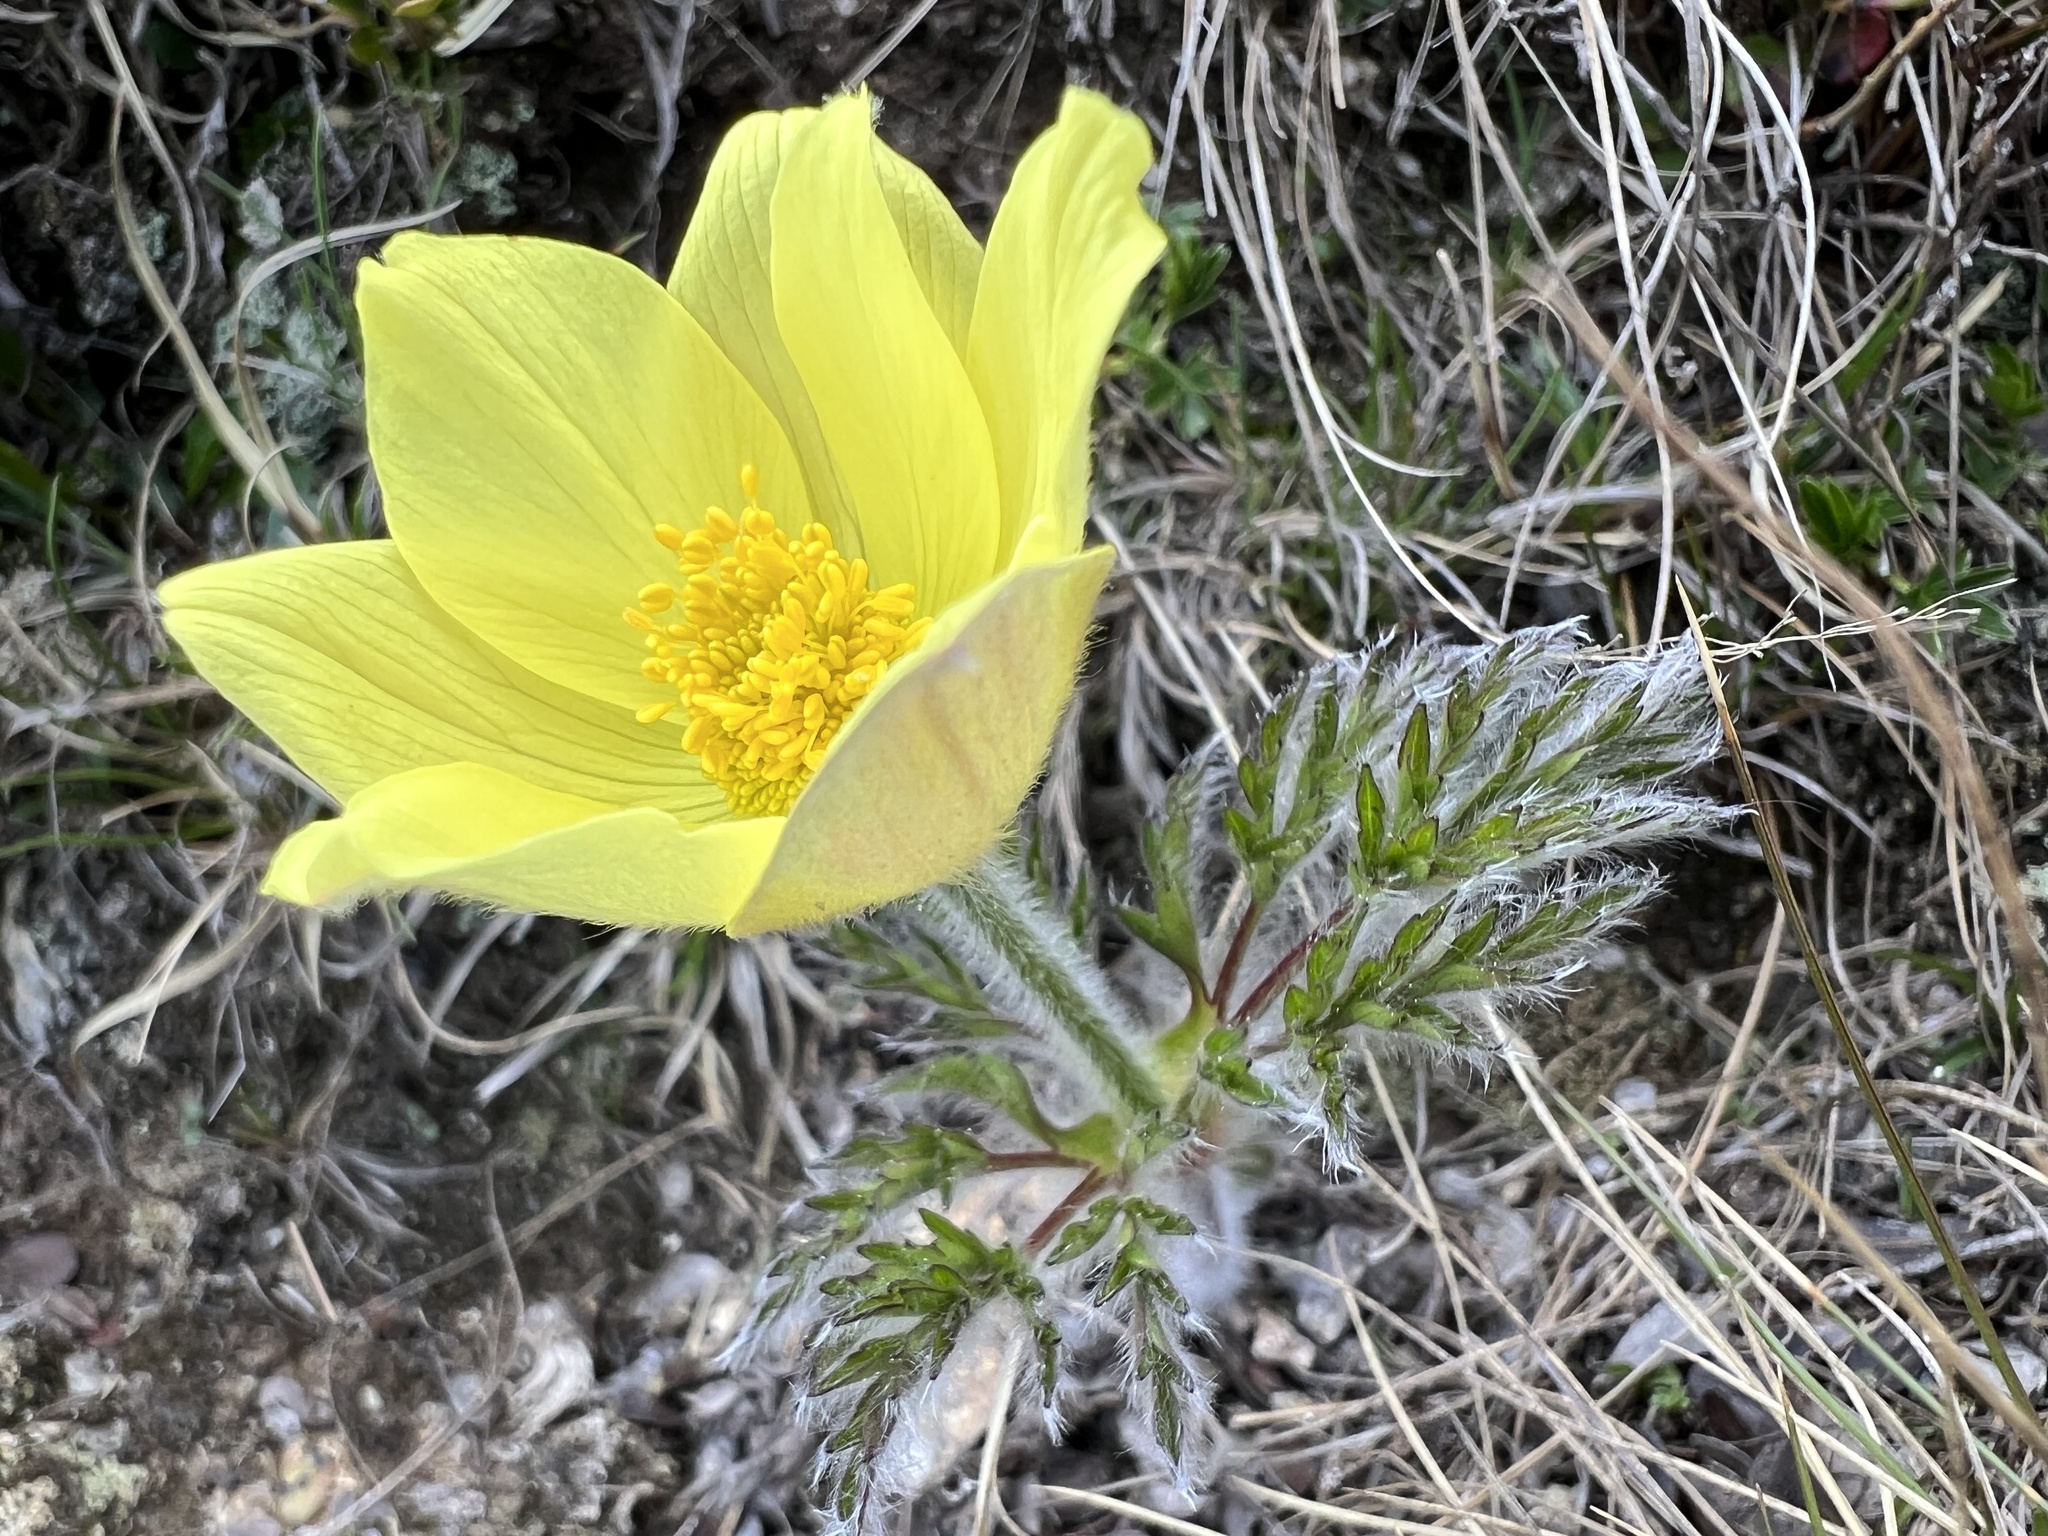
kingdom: Plantae
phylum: Tracheophyta
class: Magnoliopsida
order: Ranunculales
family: Ranunculaceae
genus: Pulsatilla
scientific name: Pulsatilla alpina
